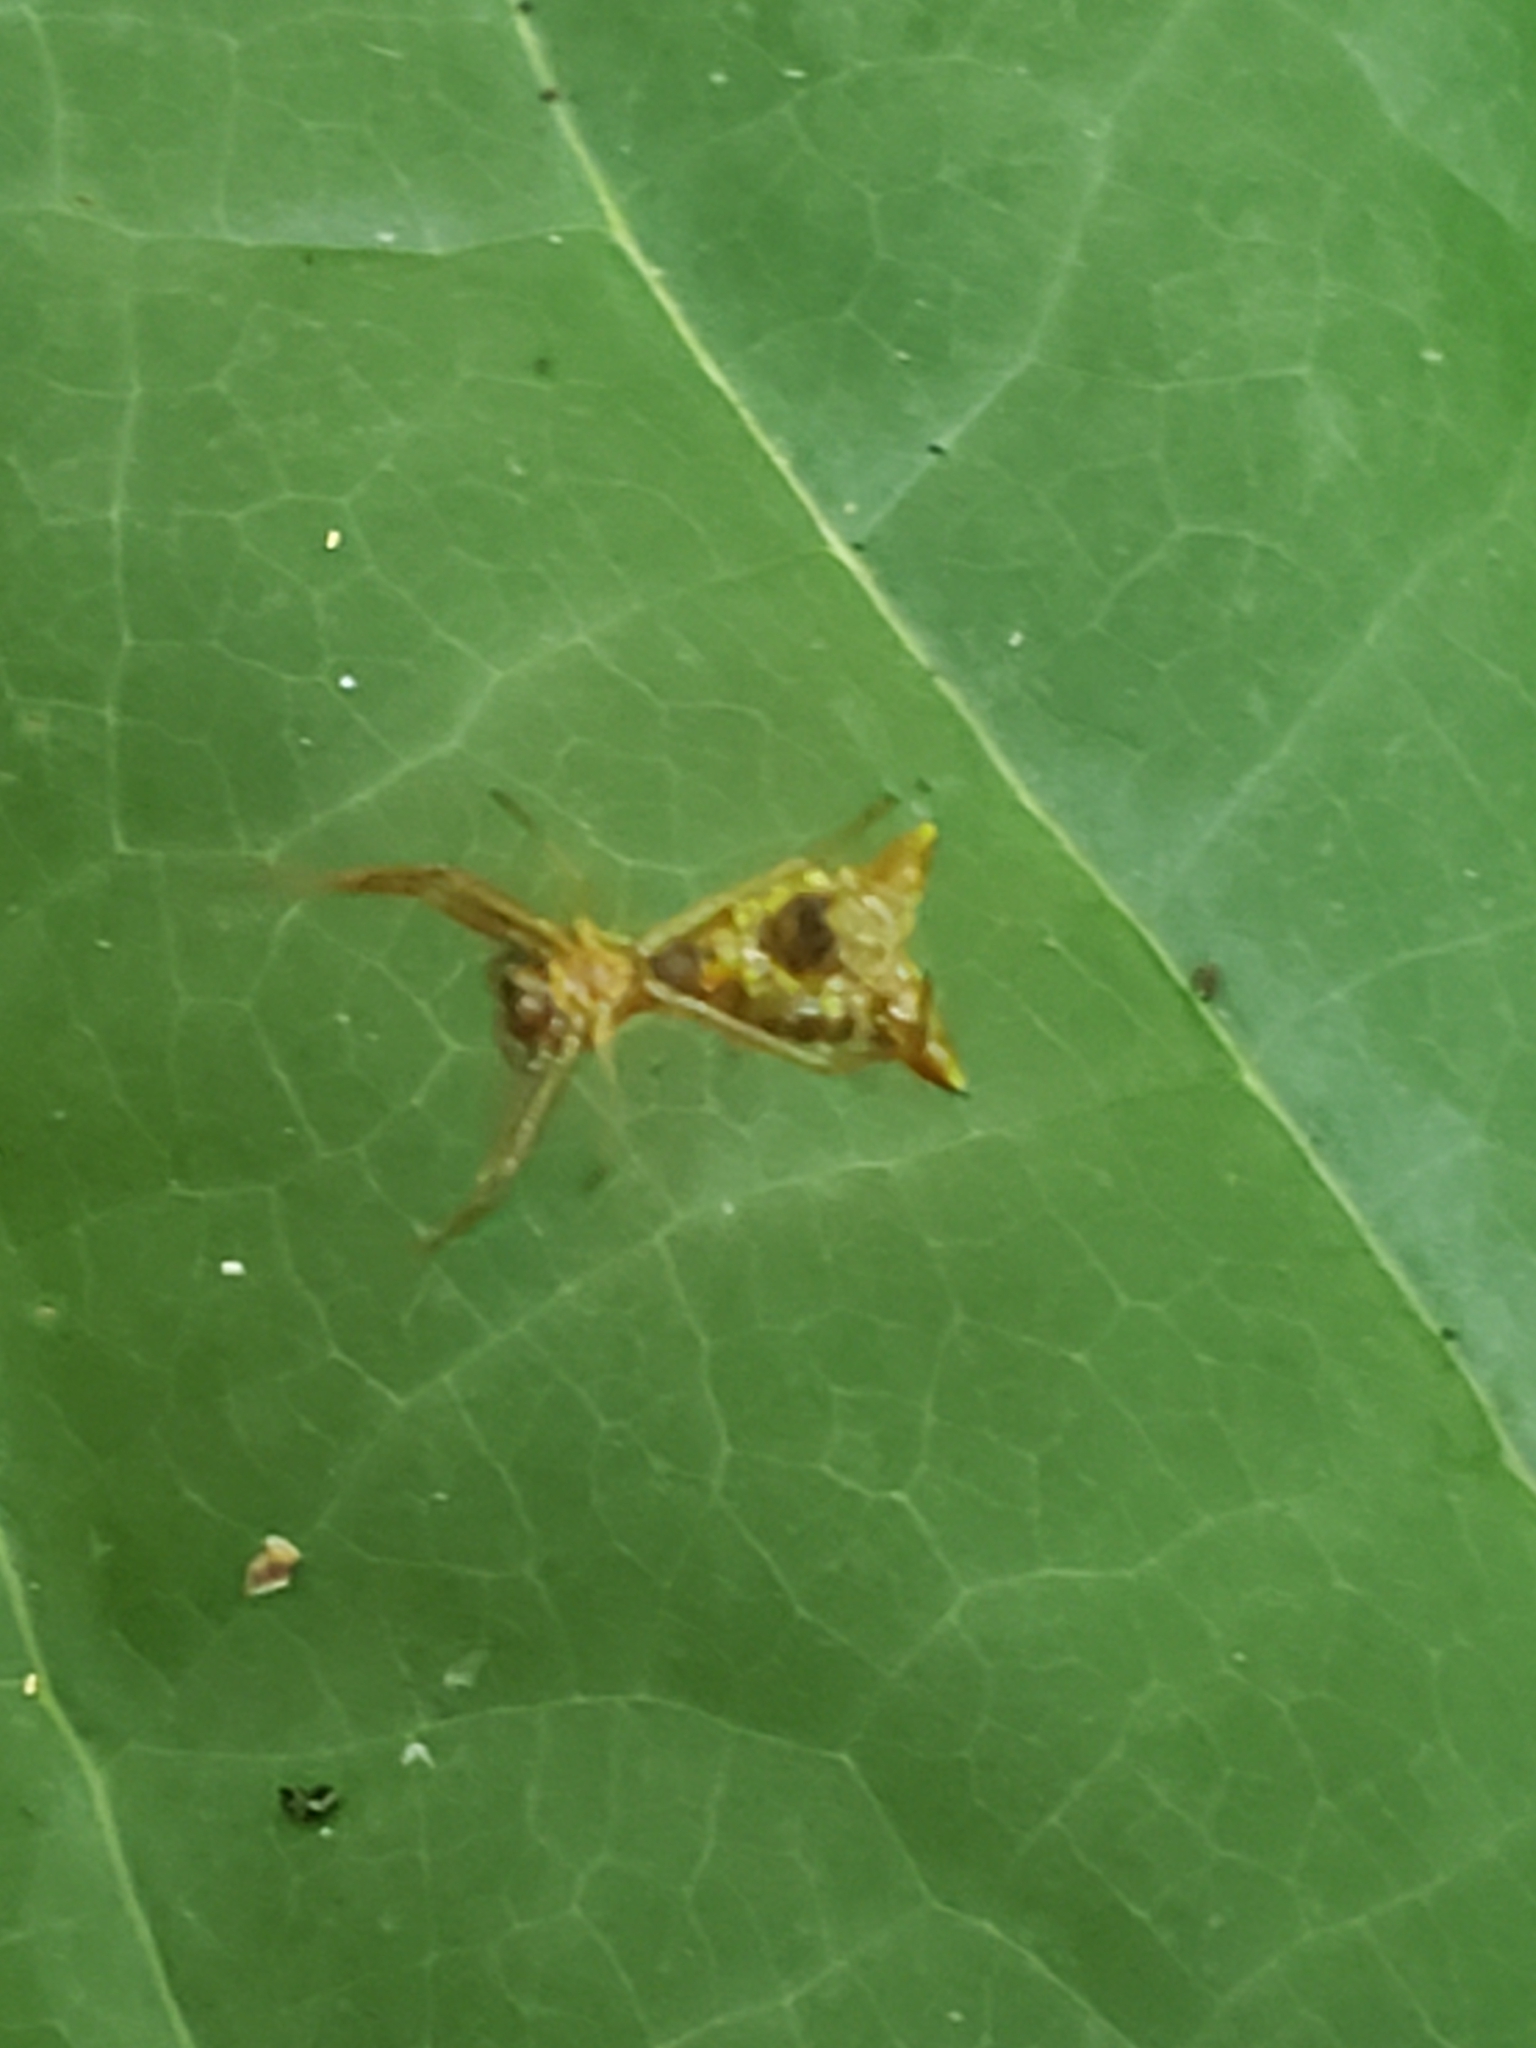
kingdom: Animalia
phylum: Arthropoda
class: Arachnida
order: Araneae
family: Araneidae
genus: Micrathena
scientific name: Micrathena sagittata
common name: Orb weavers
